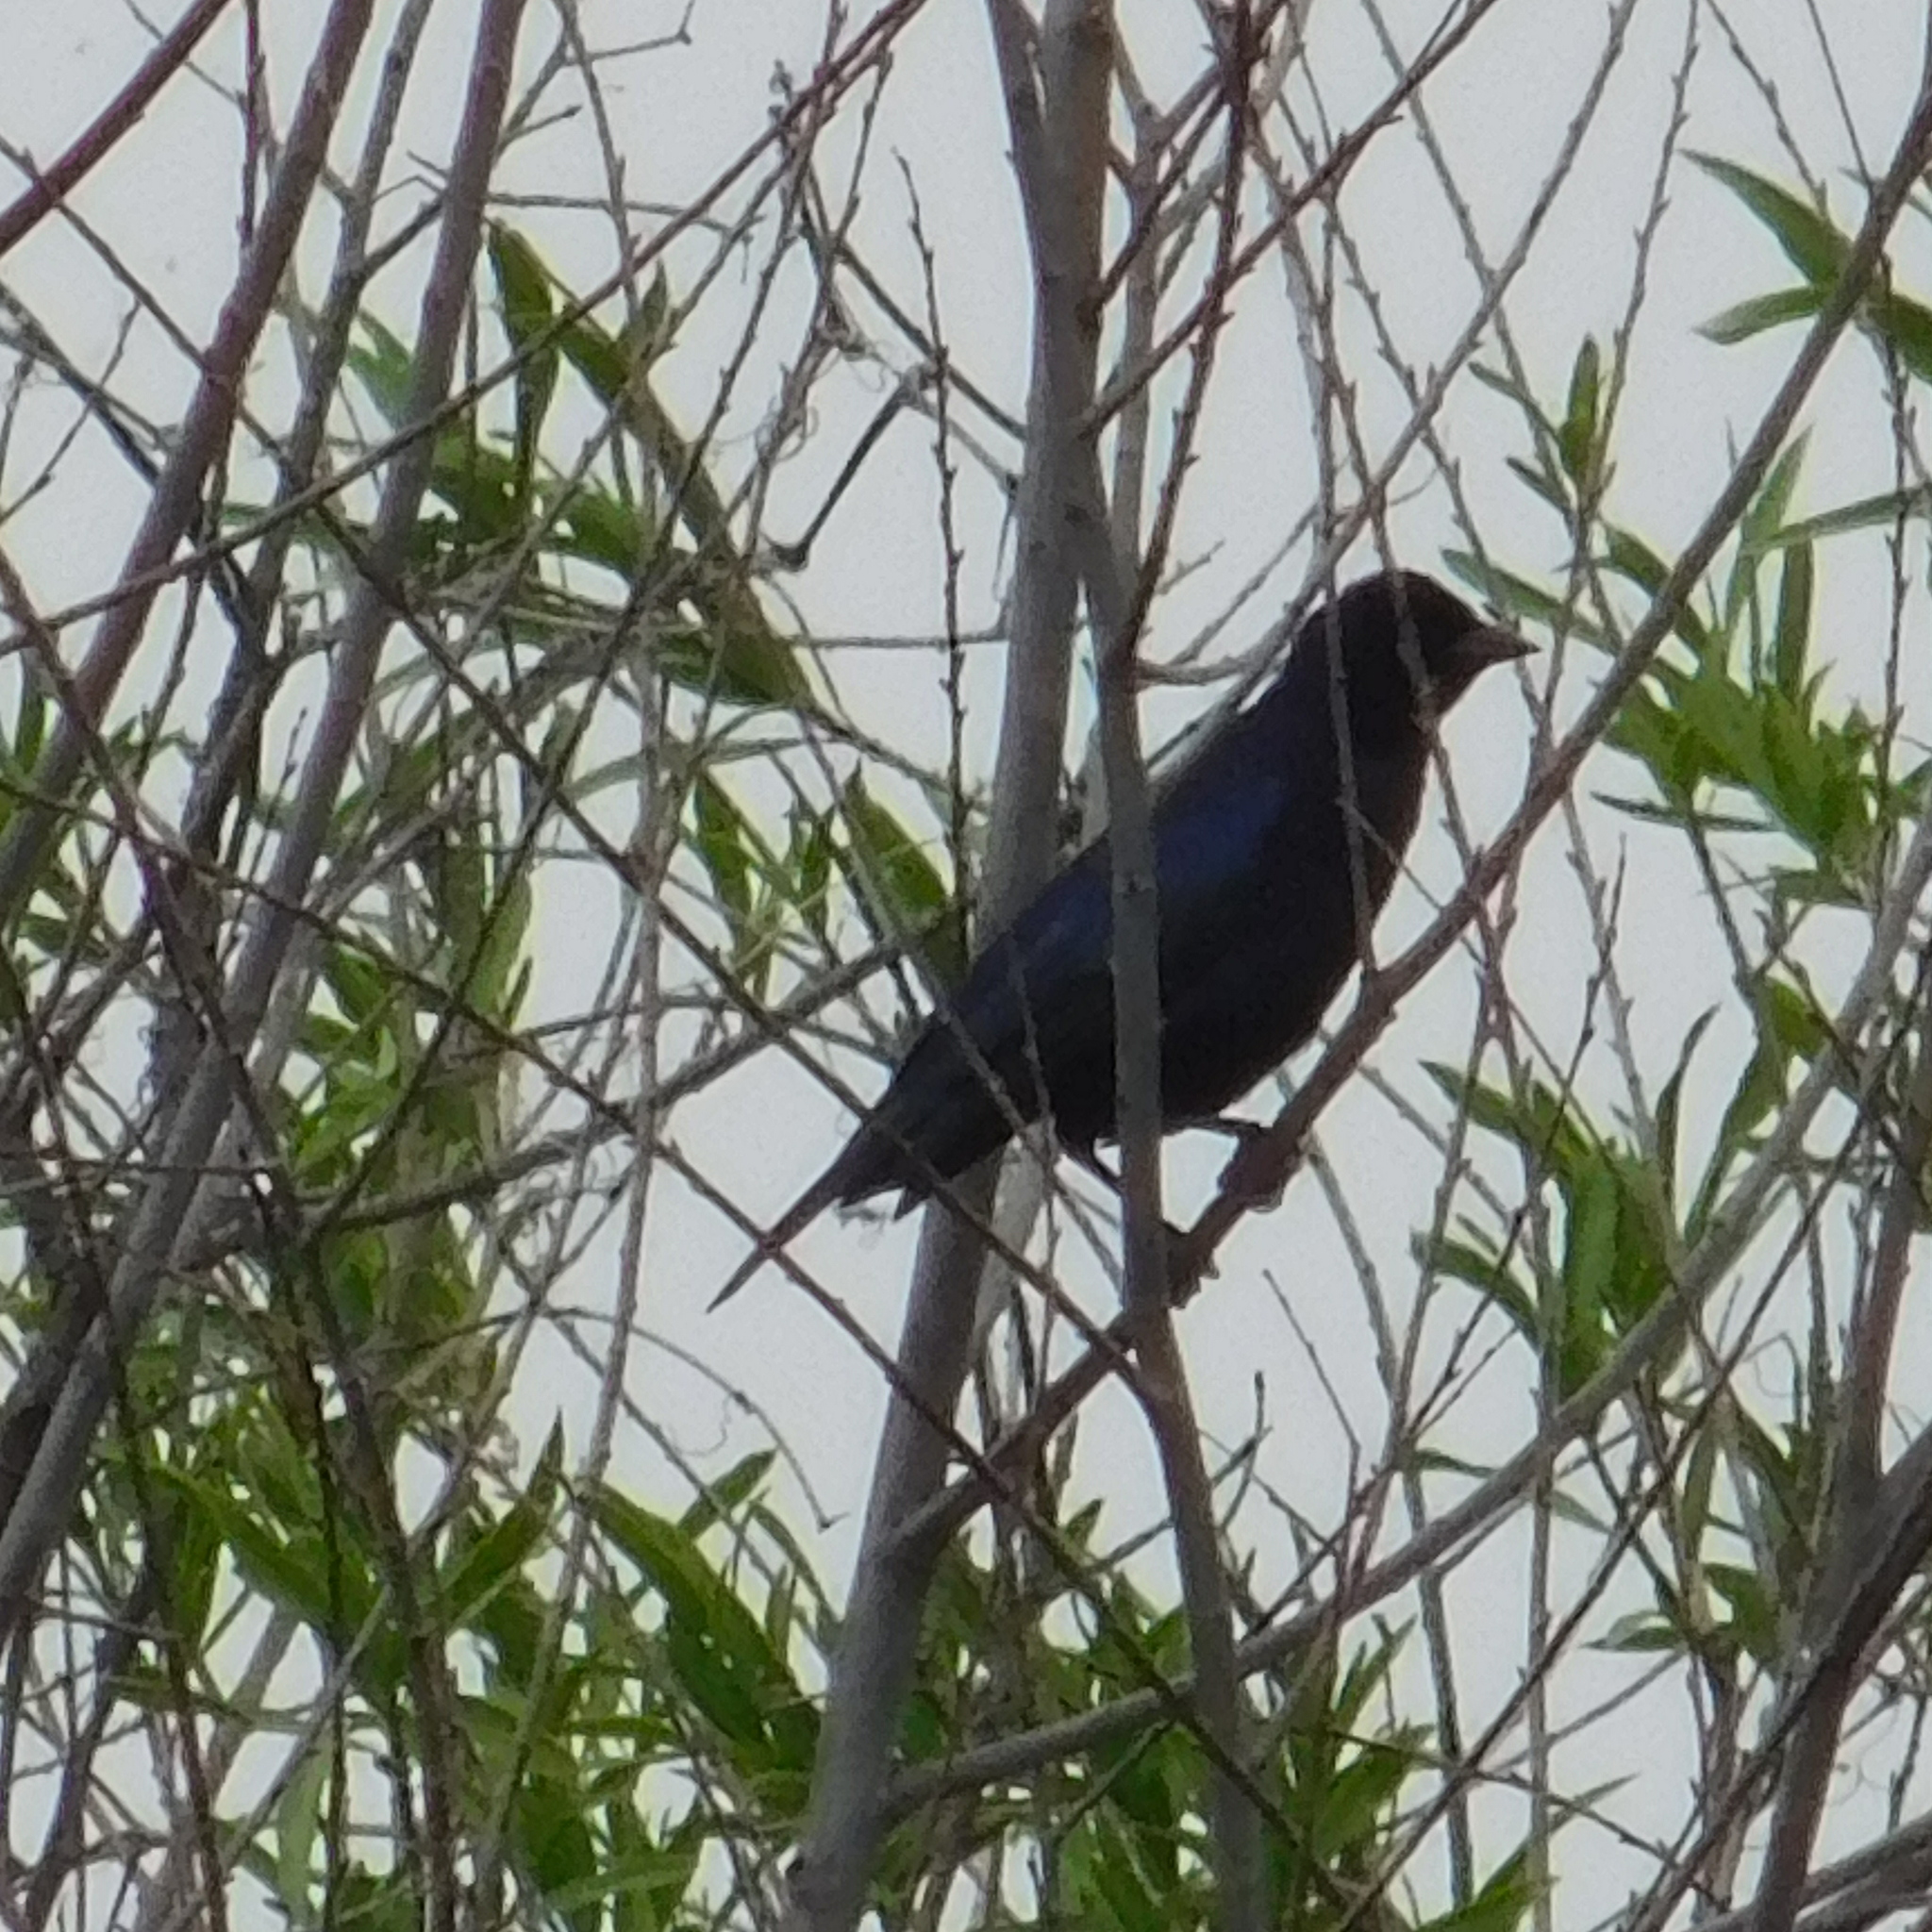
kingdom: Animalia
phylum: Chordata
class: Aves
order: Passeriformes
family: Icteridae
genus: Molothrus
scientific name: Molothrus bonariensis
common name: Shiny cowbird
